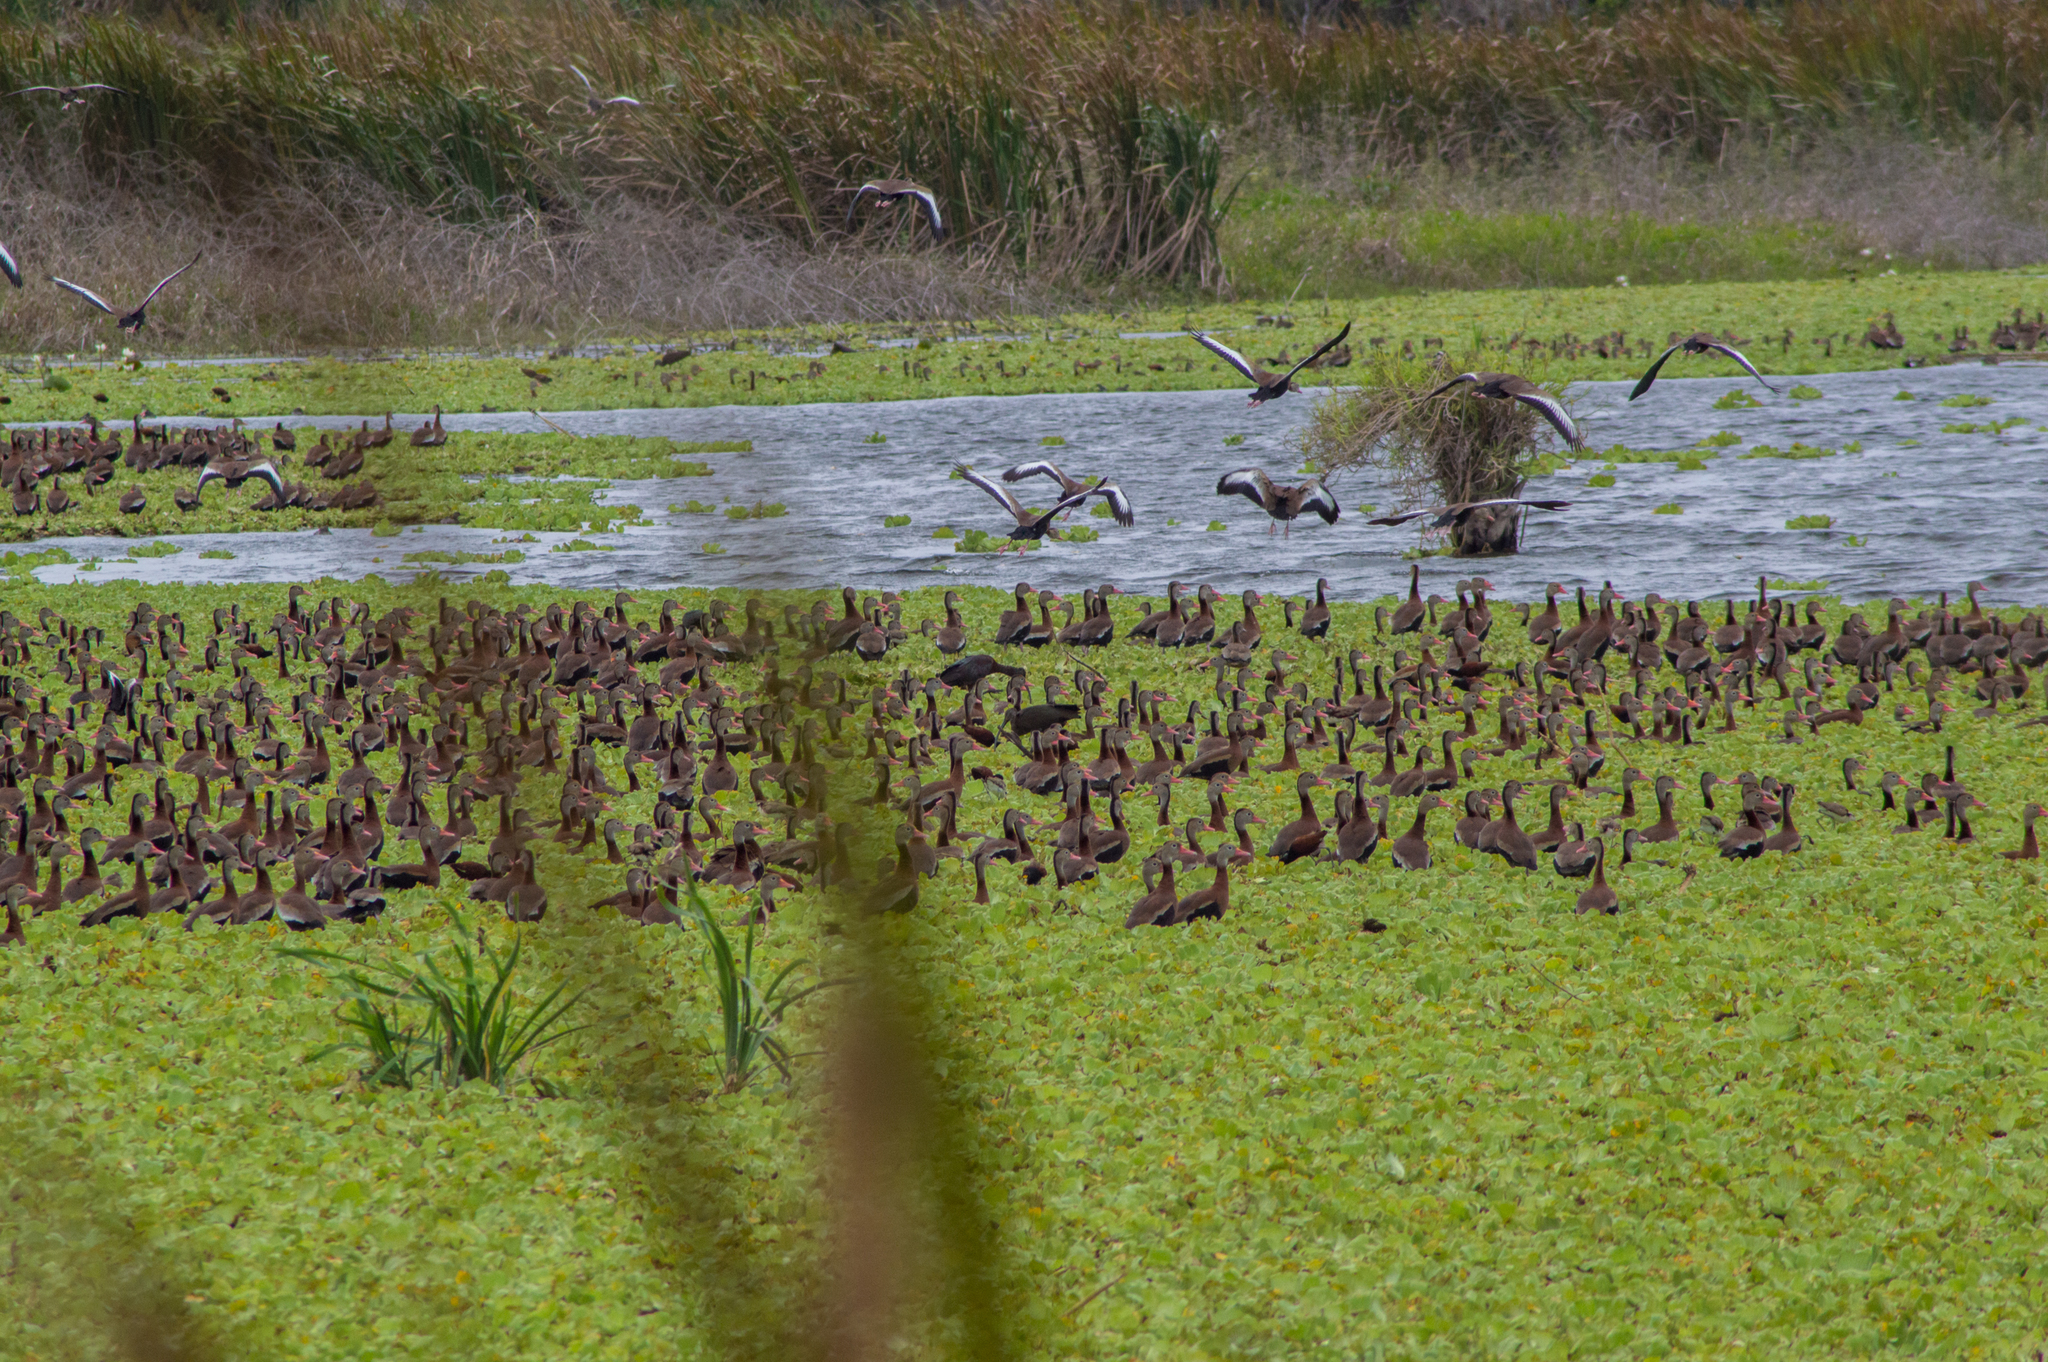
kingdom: Animalia
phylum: Chordata
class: Aves
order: Anseriformes
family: Anatidae
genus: Dendrocygna
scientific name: Dendrocygna autumnalis
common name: Black-bellied whistling duck
